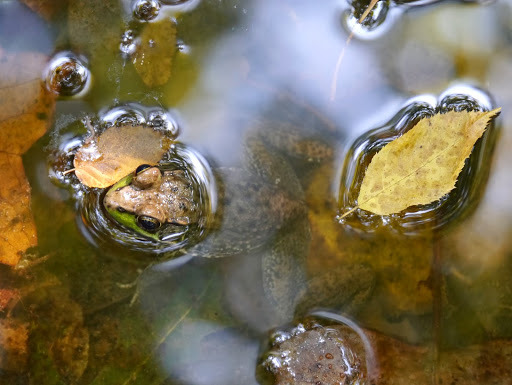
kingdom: Animalia
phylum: Chordata
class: Amphibia
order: Anura
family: Ranidae
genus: Lithobates
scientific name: Lithobates clamitans
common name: Green frog
